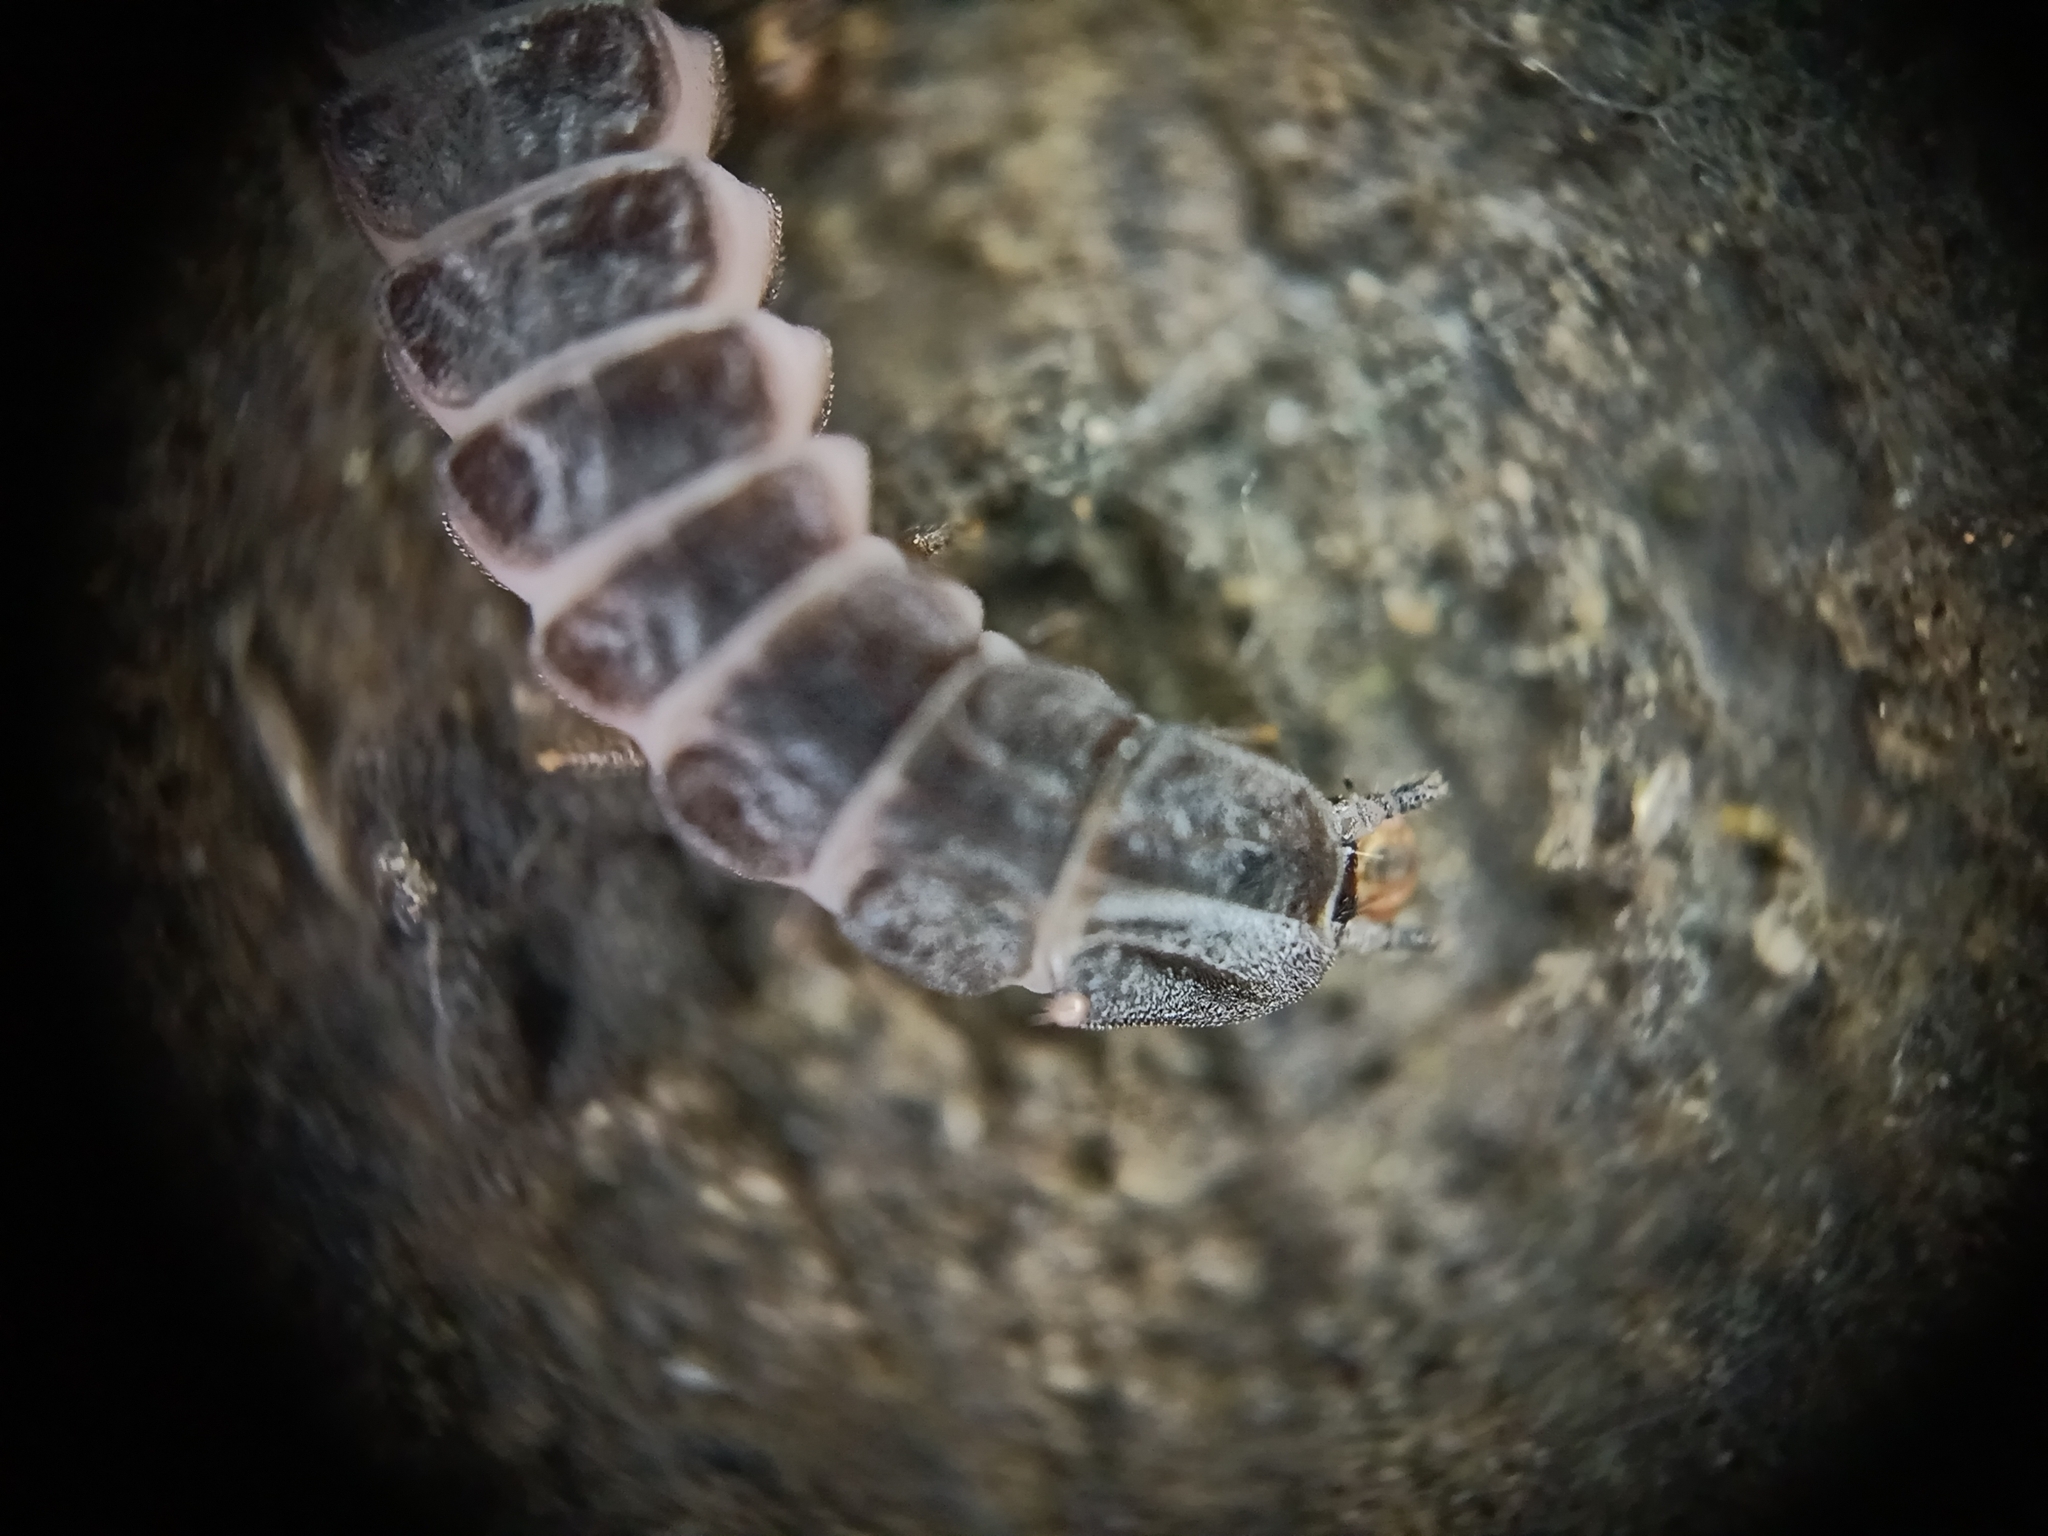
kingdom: Animalia
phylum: Arthropoda
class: Insecta
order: Coleoptera
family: Lampyridae
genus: Phosphaenus
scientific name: Phosphaenus hemipterus
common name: Short-winged firefly
